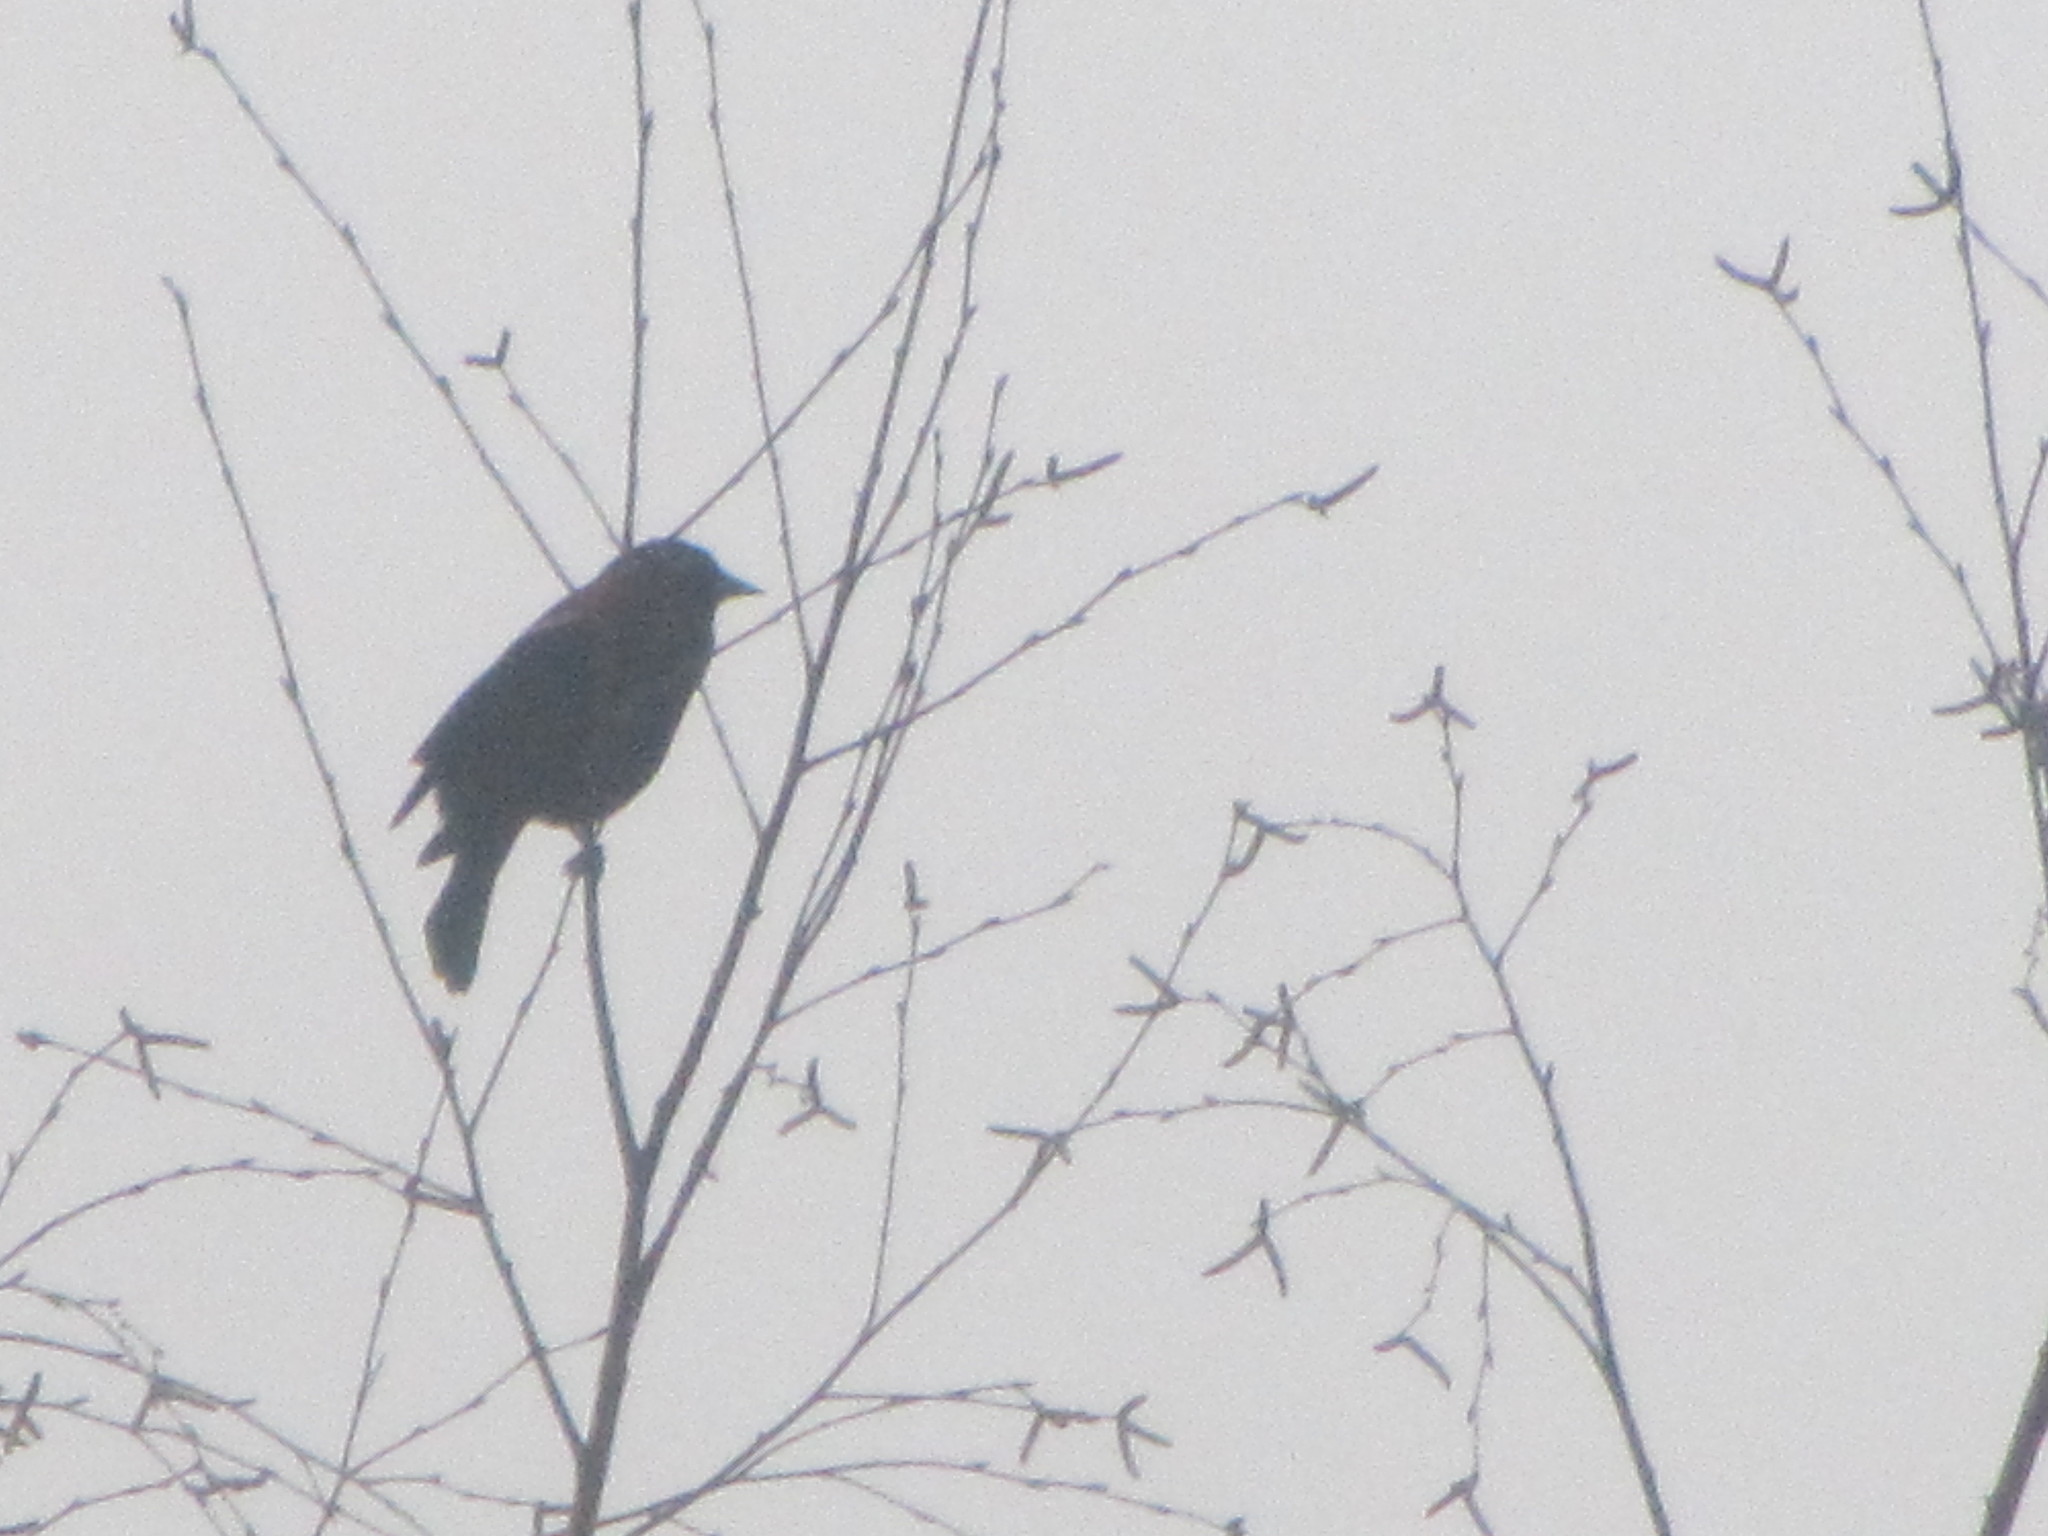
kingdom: Animalia
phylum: Chordata
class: Aves
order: Passeriformes
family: Icteridae
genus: Agelaius
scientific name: Agelaius phoeniceus
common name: Red-winged blackbird
